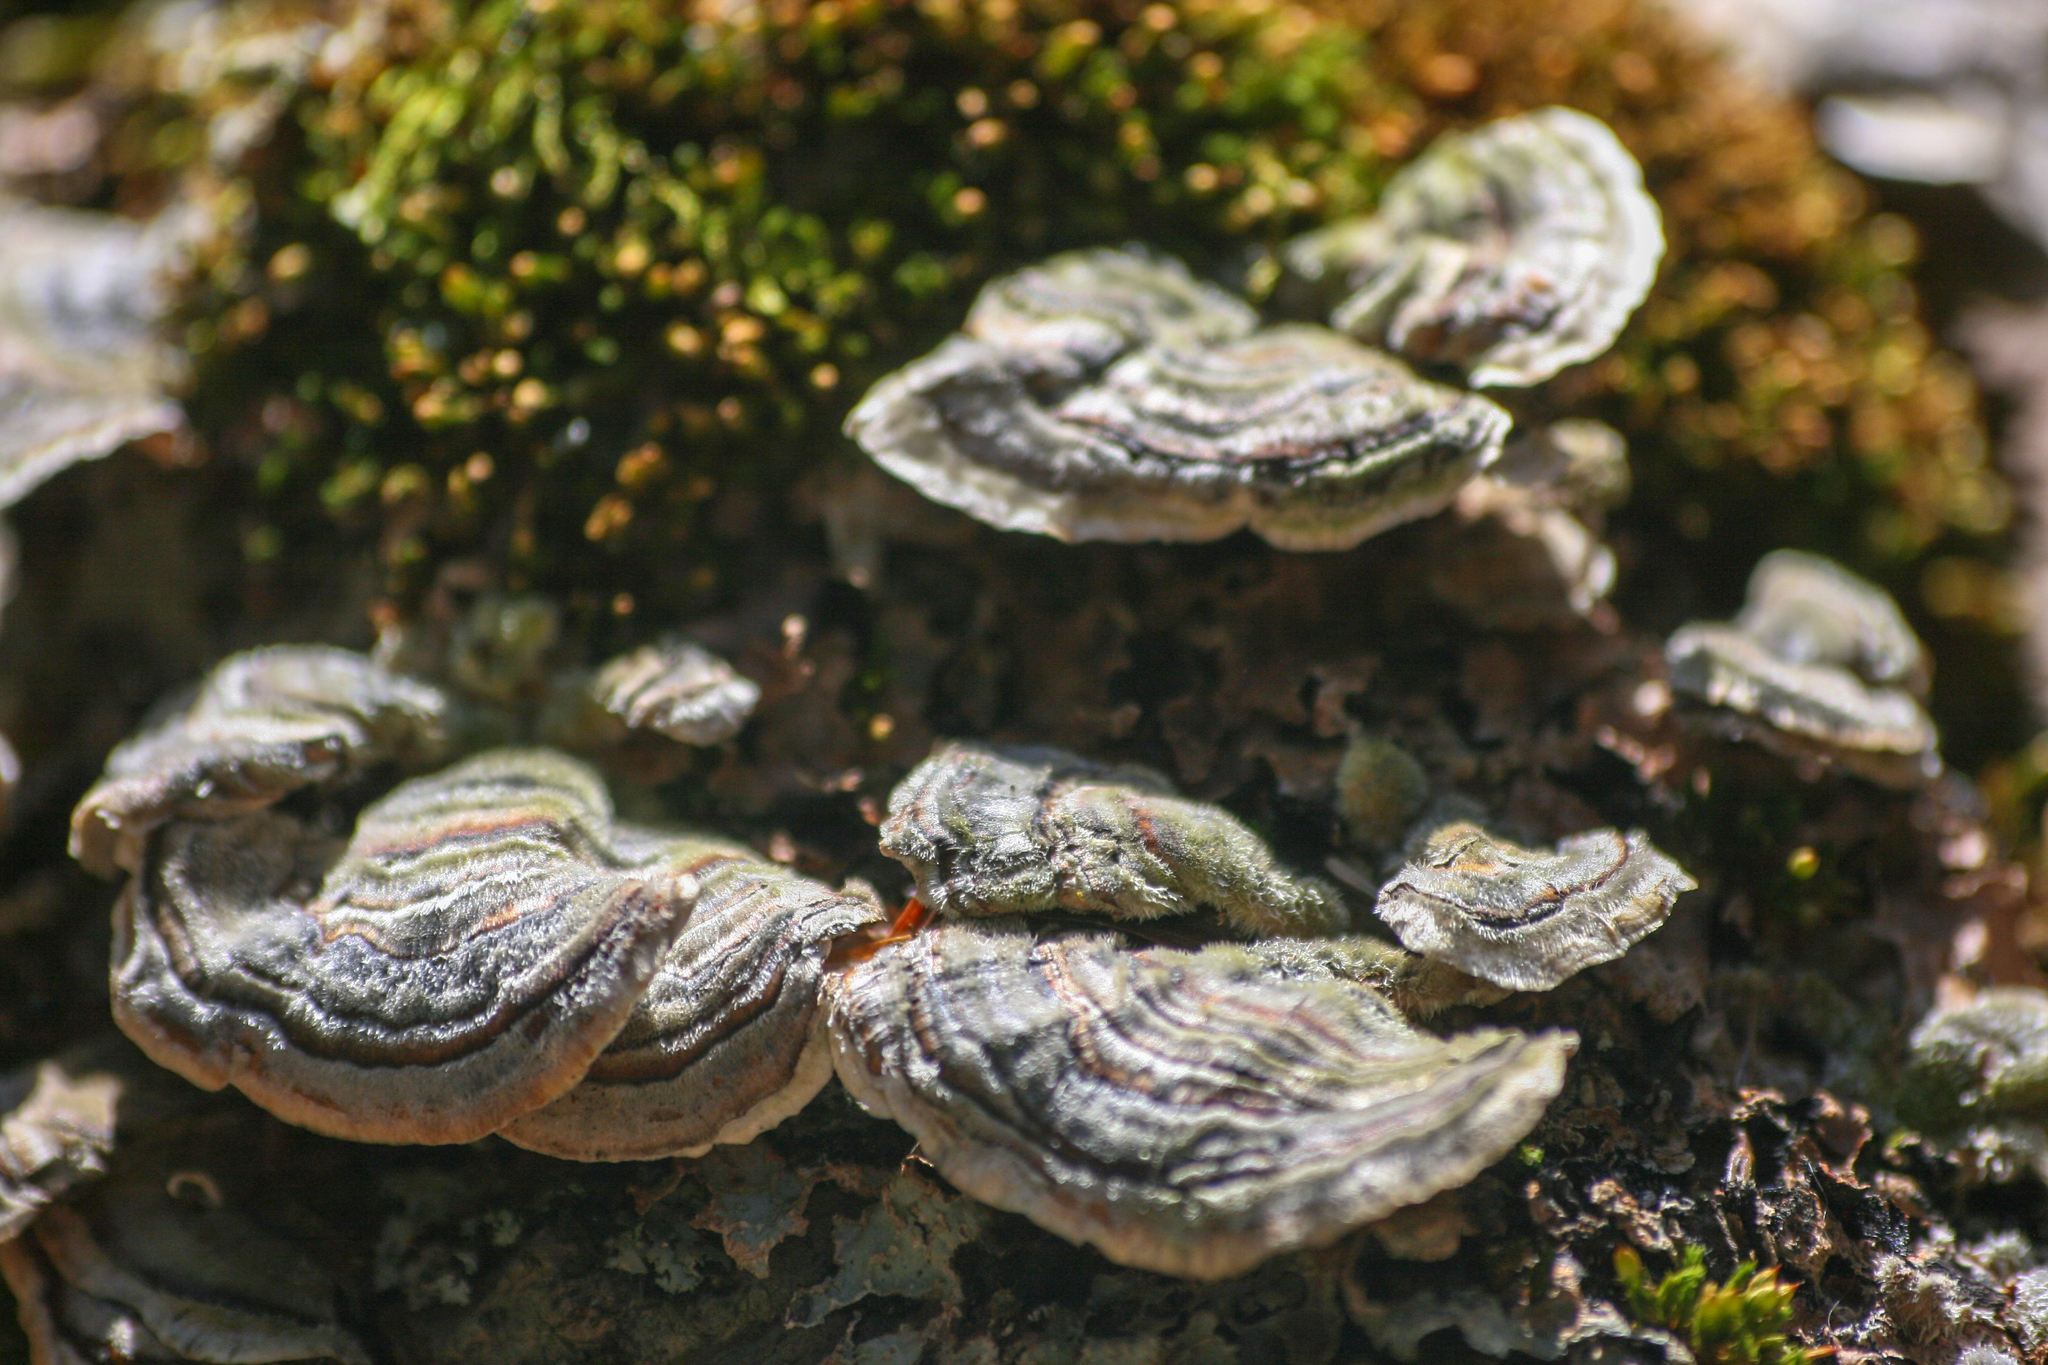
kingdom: Fungi
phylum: Basidiomycota
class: Agaricomycetes
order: Polyporales
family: Polyporaceae
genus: Trametes
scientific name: Trametes versicolor
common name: Turkeytail
